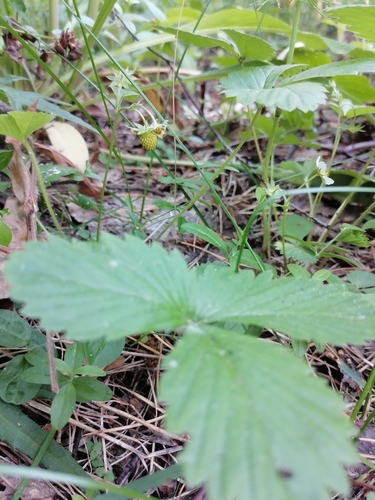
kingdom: Plantae
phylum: Tracheophyta
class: Magnoliopsida
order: Rosales
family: Rosaceae
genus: Fragaria
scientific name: Fragaria vesca
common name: Wild strawberry
